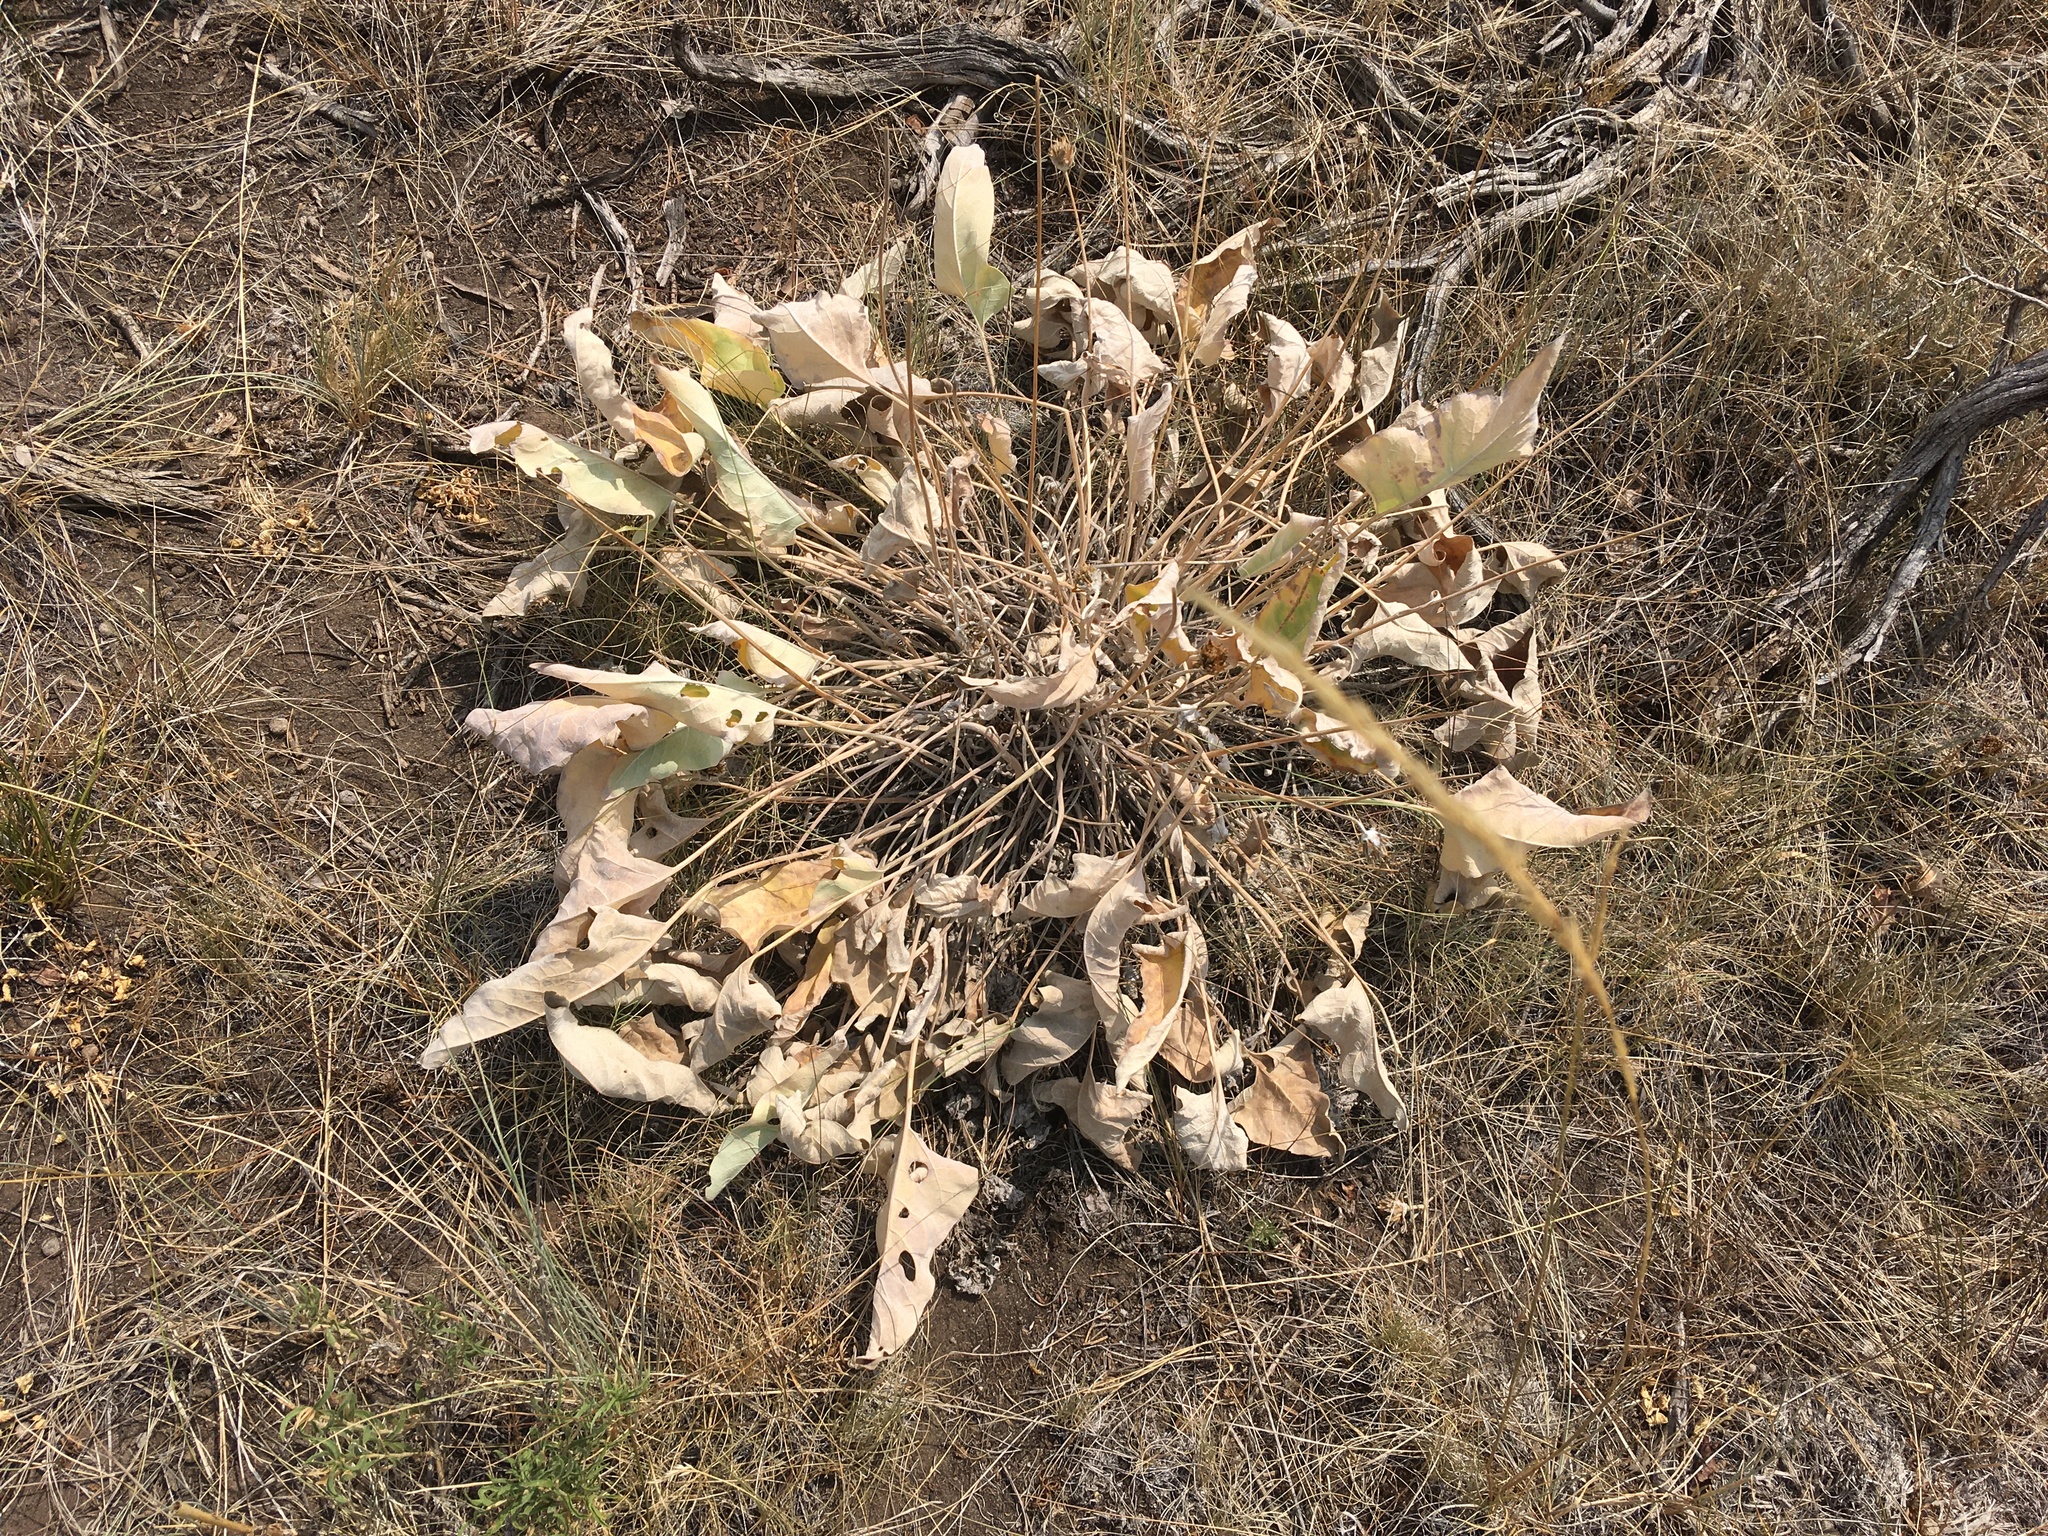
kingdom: Plantae
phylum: Tracheophyta
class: Magnoliopsida
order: Asterales
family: Asteraceae
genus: Wyethia
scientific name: Wyethia sagittata
